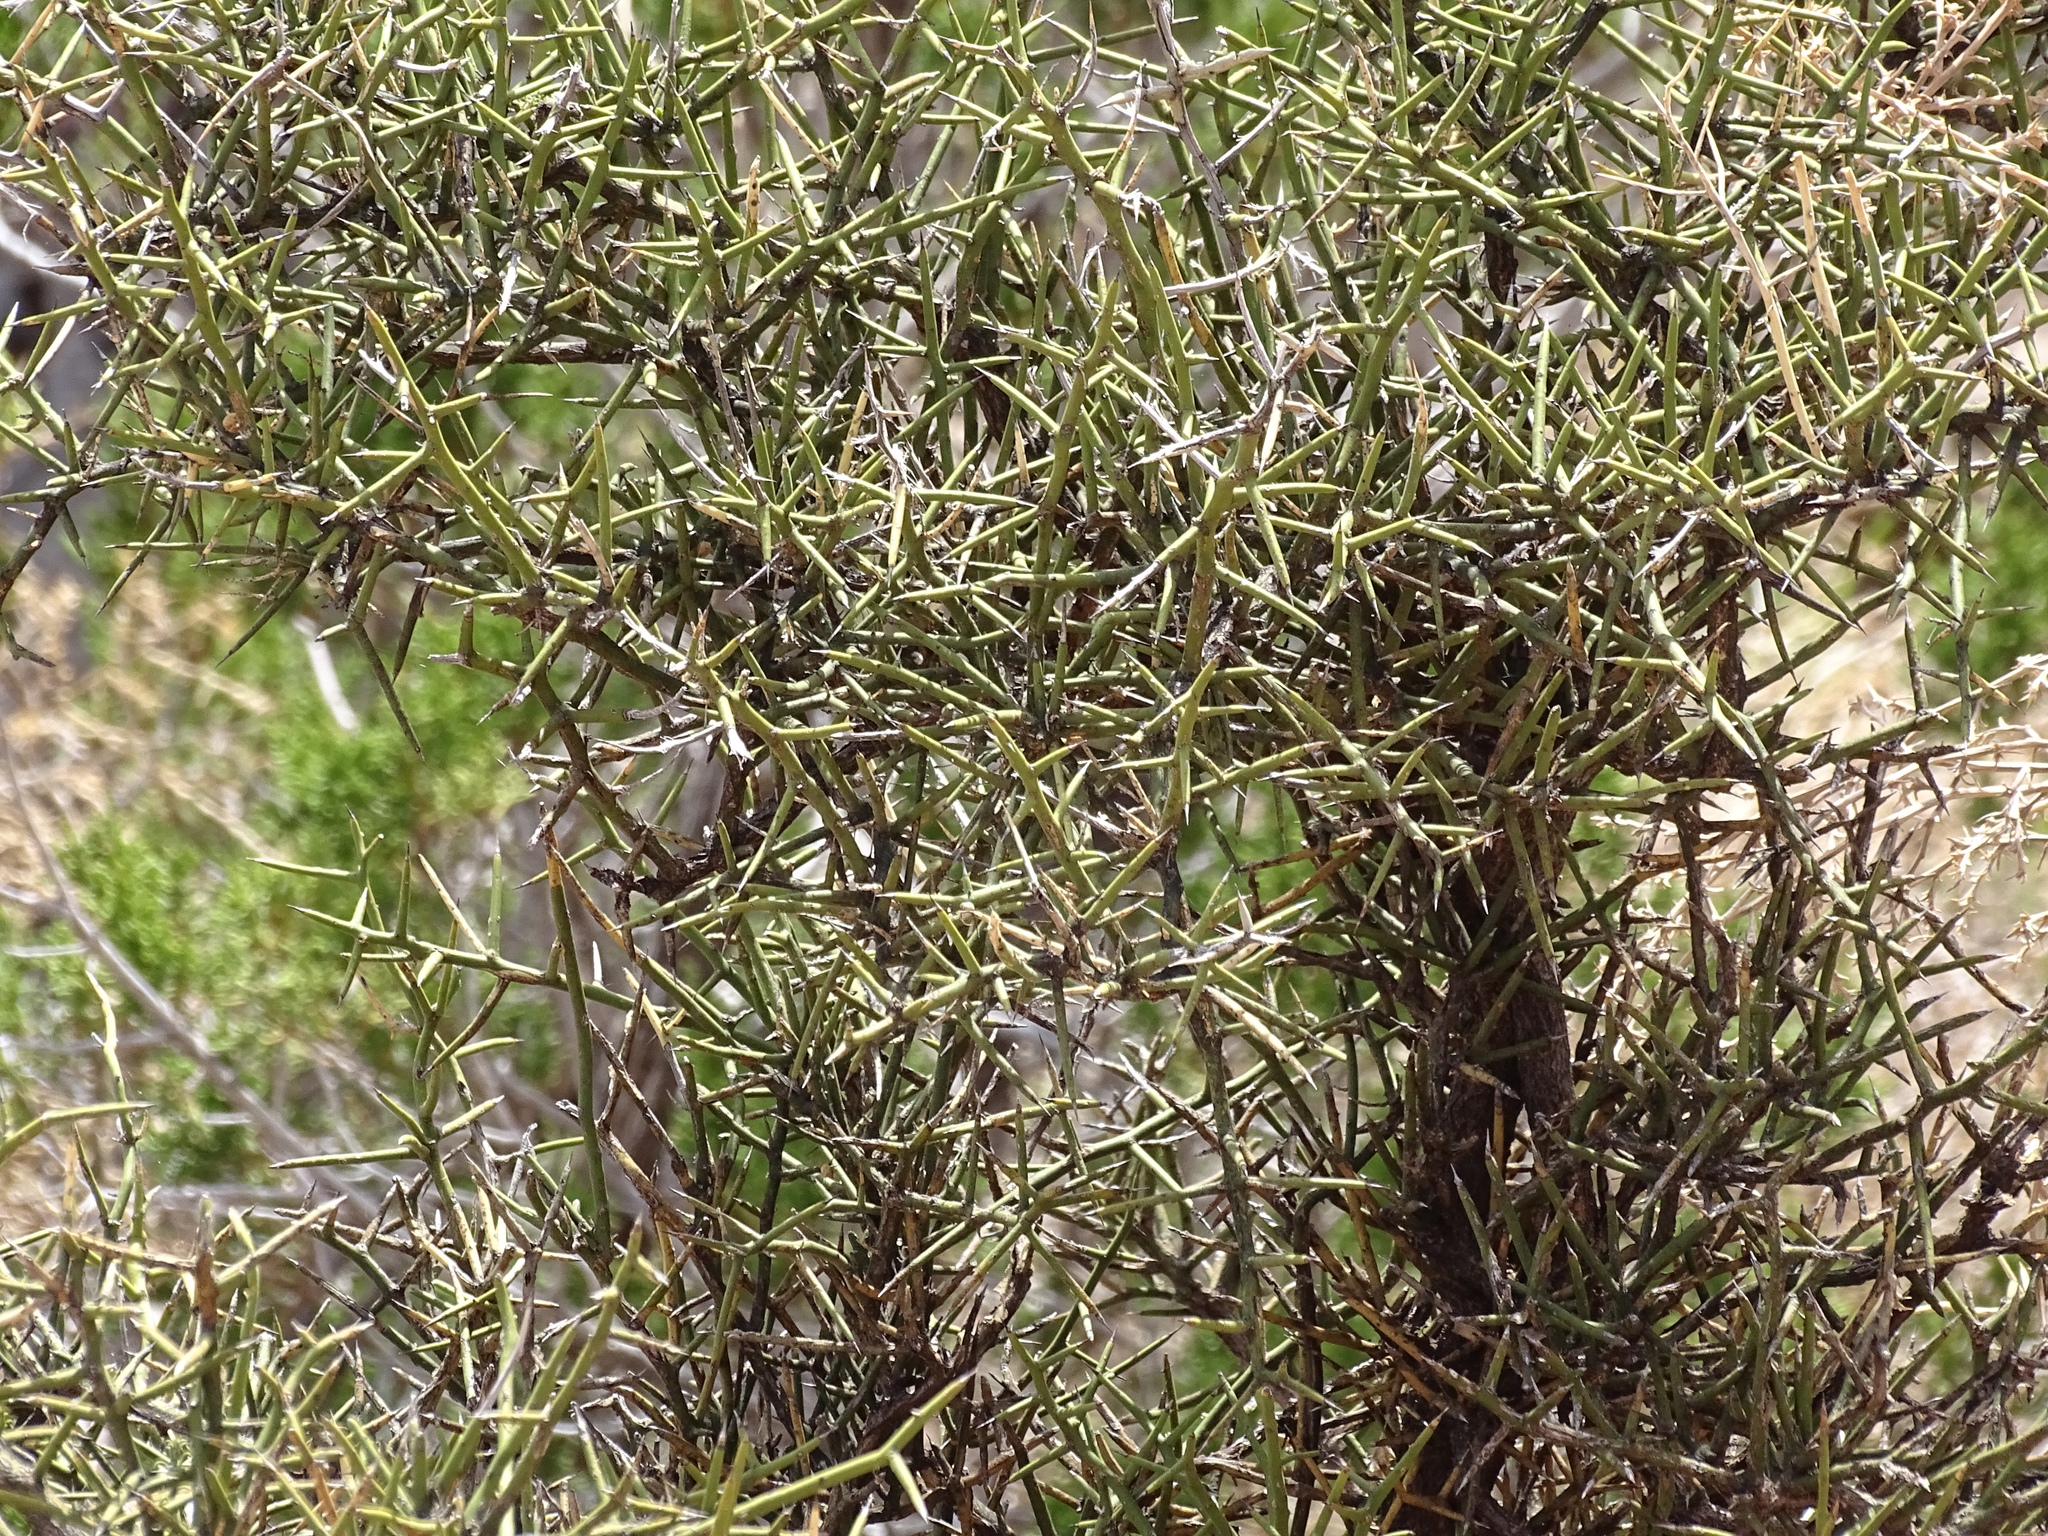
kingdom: Plantae
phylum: Tracheophyta
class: Magnoliopsida
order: Brassicales
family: Koeberliniaceae
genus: Koeberlinia
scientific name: Koeberlinia spinosa
